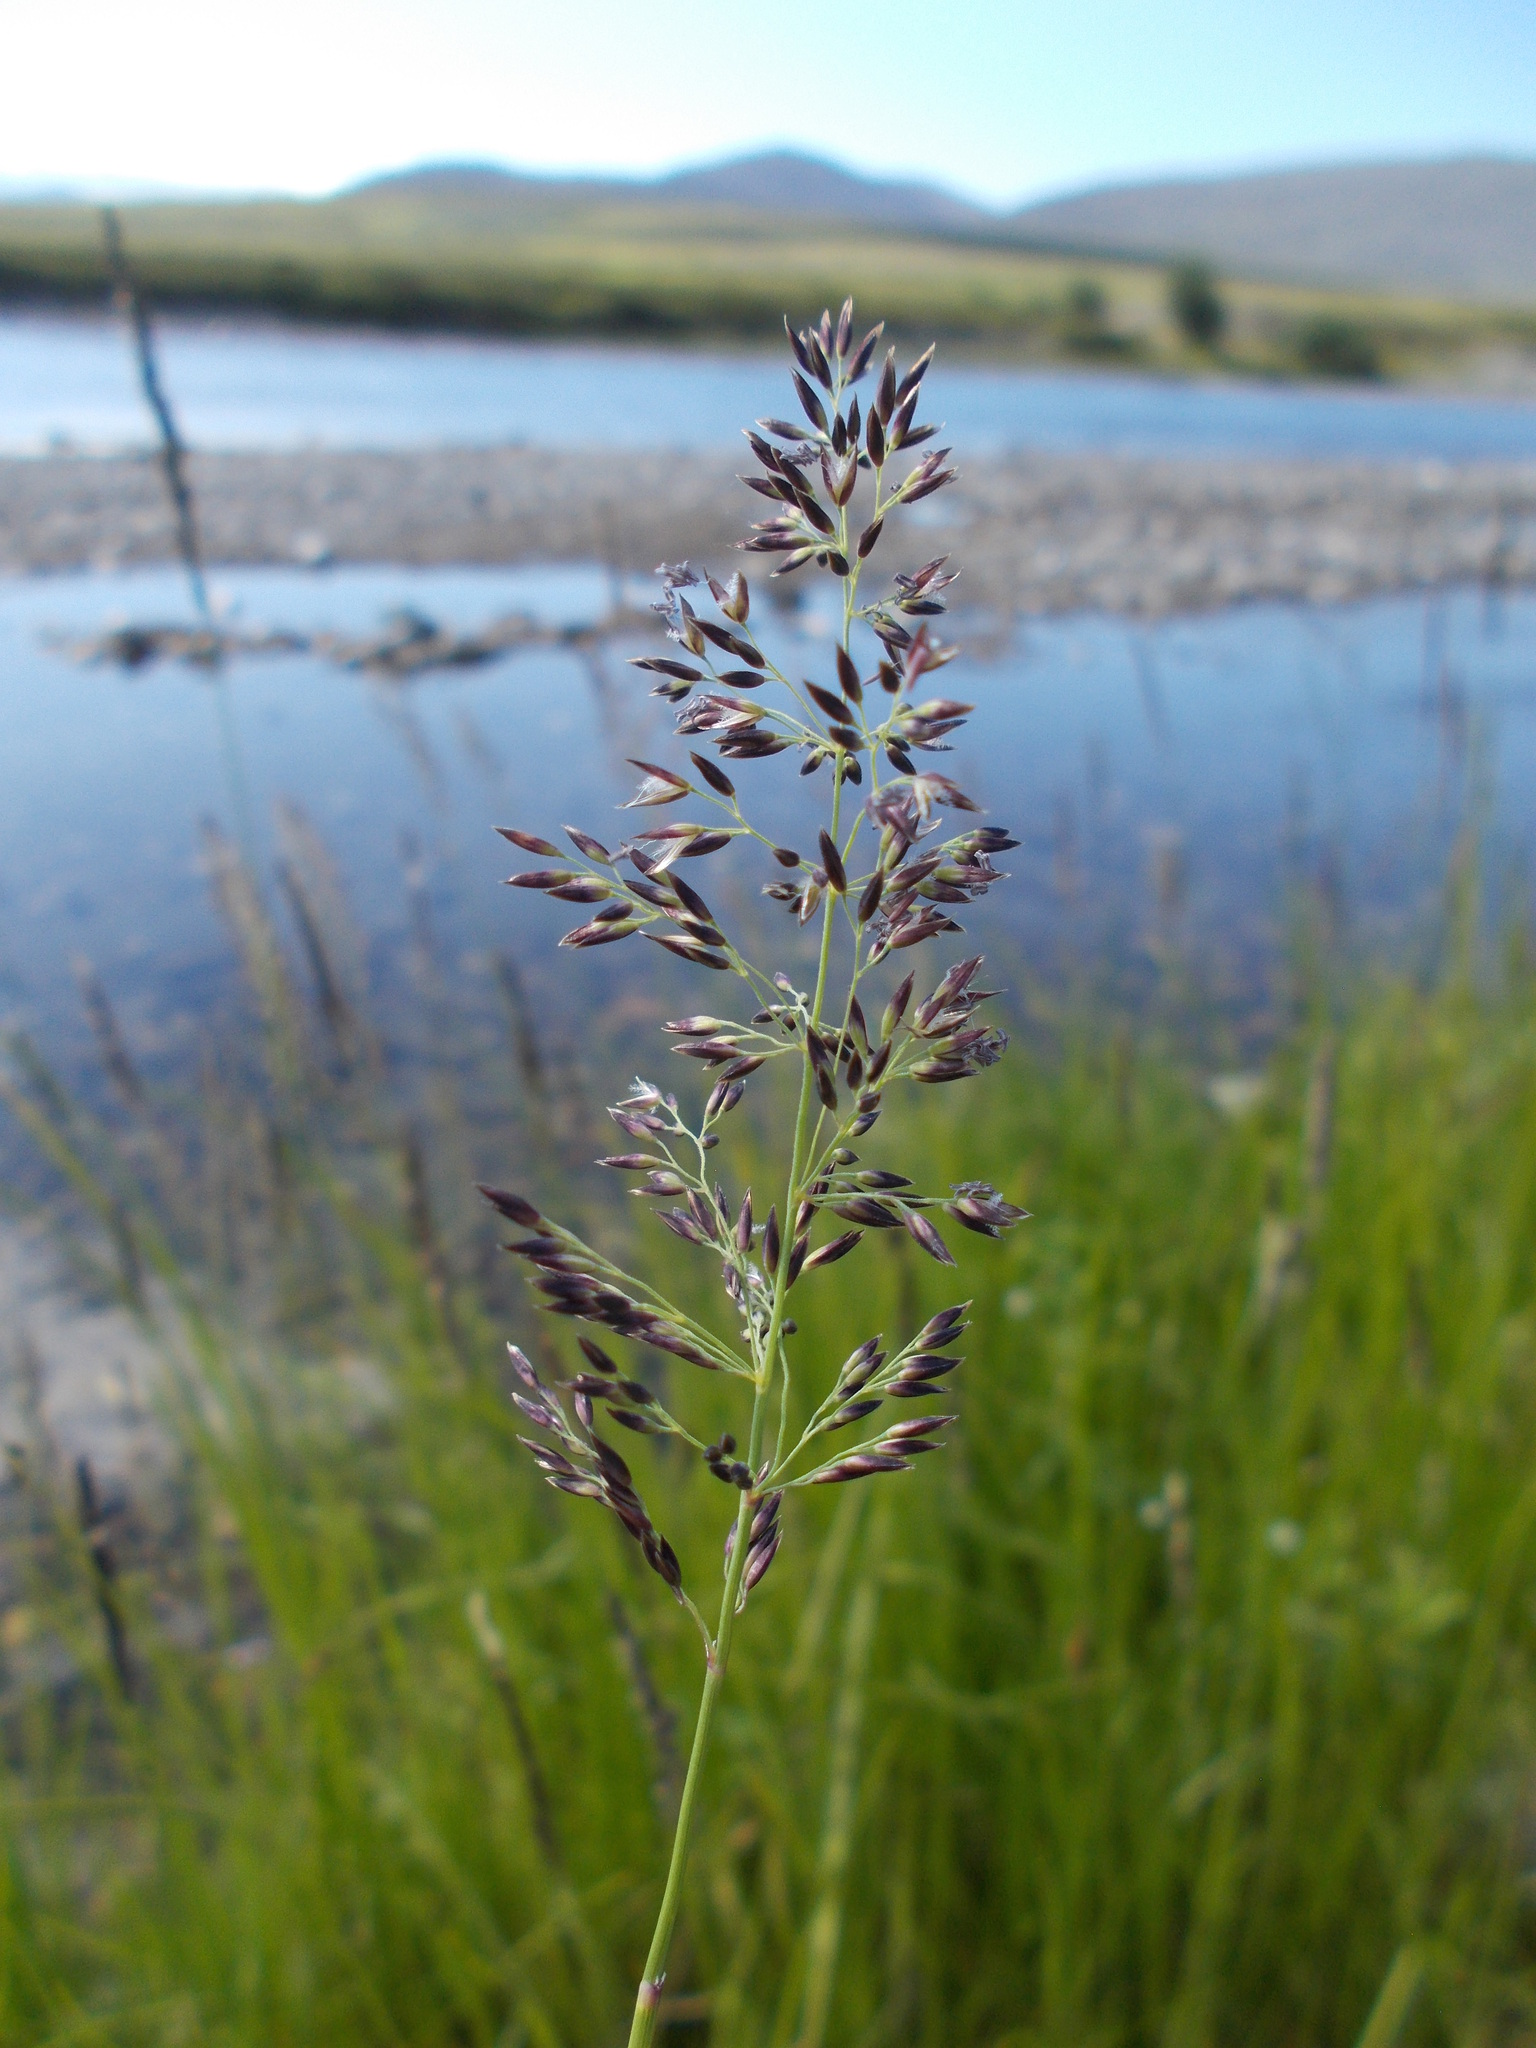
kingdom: Plantae
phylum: Tracheophyta
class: Liliopsida
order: Poales
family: Poaceae
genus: Calamagrostis
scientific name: Calamagrostis stricta
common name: Narrow small-reed
